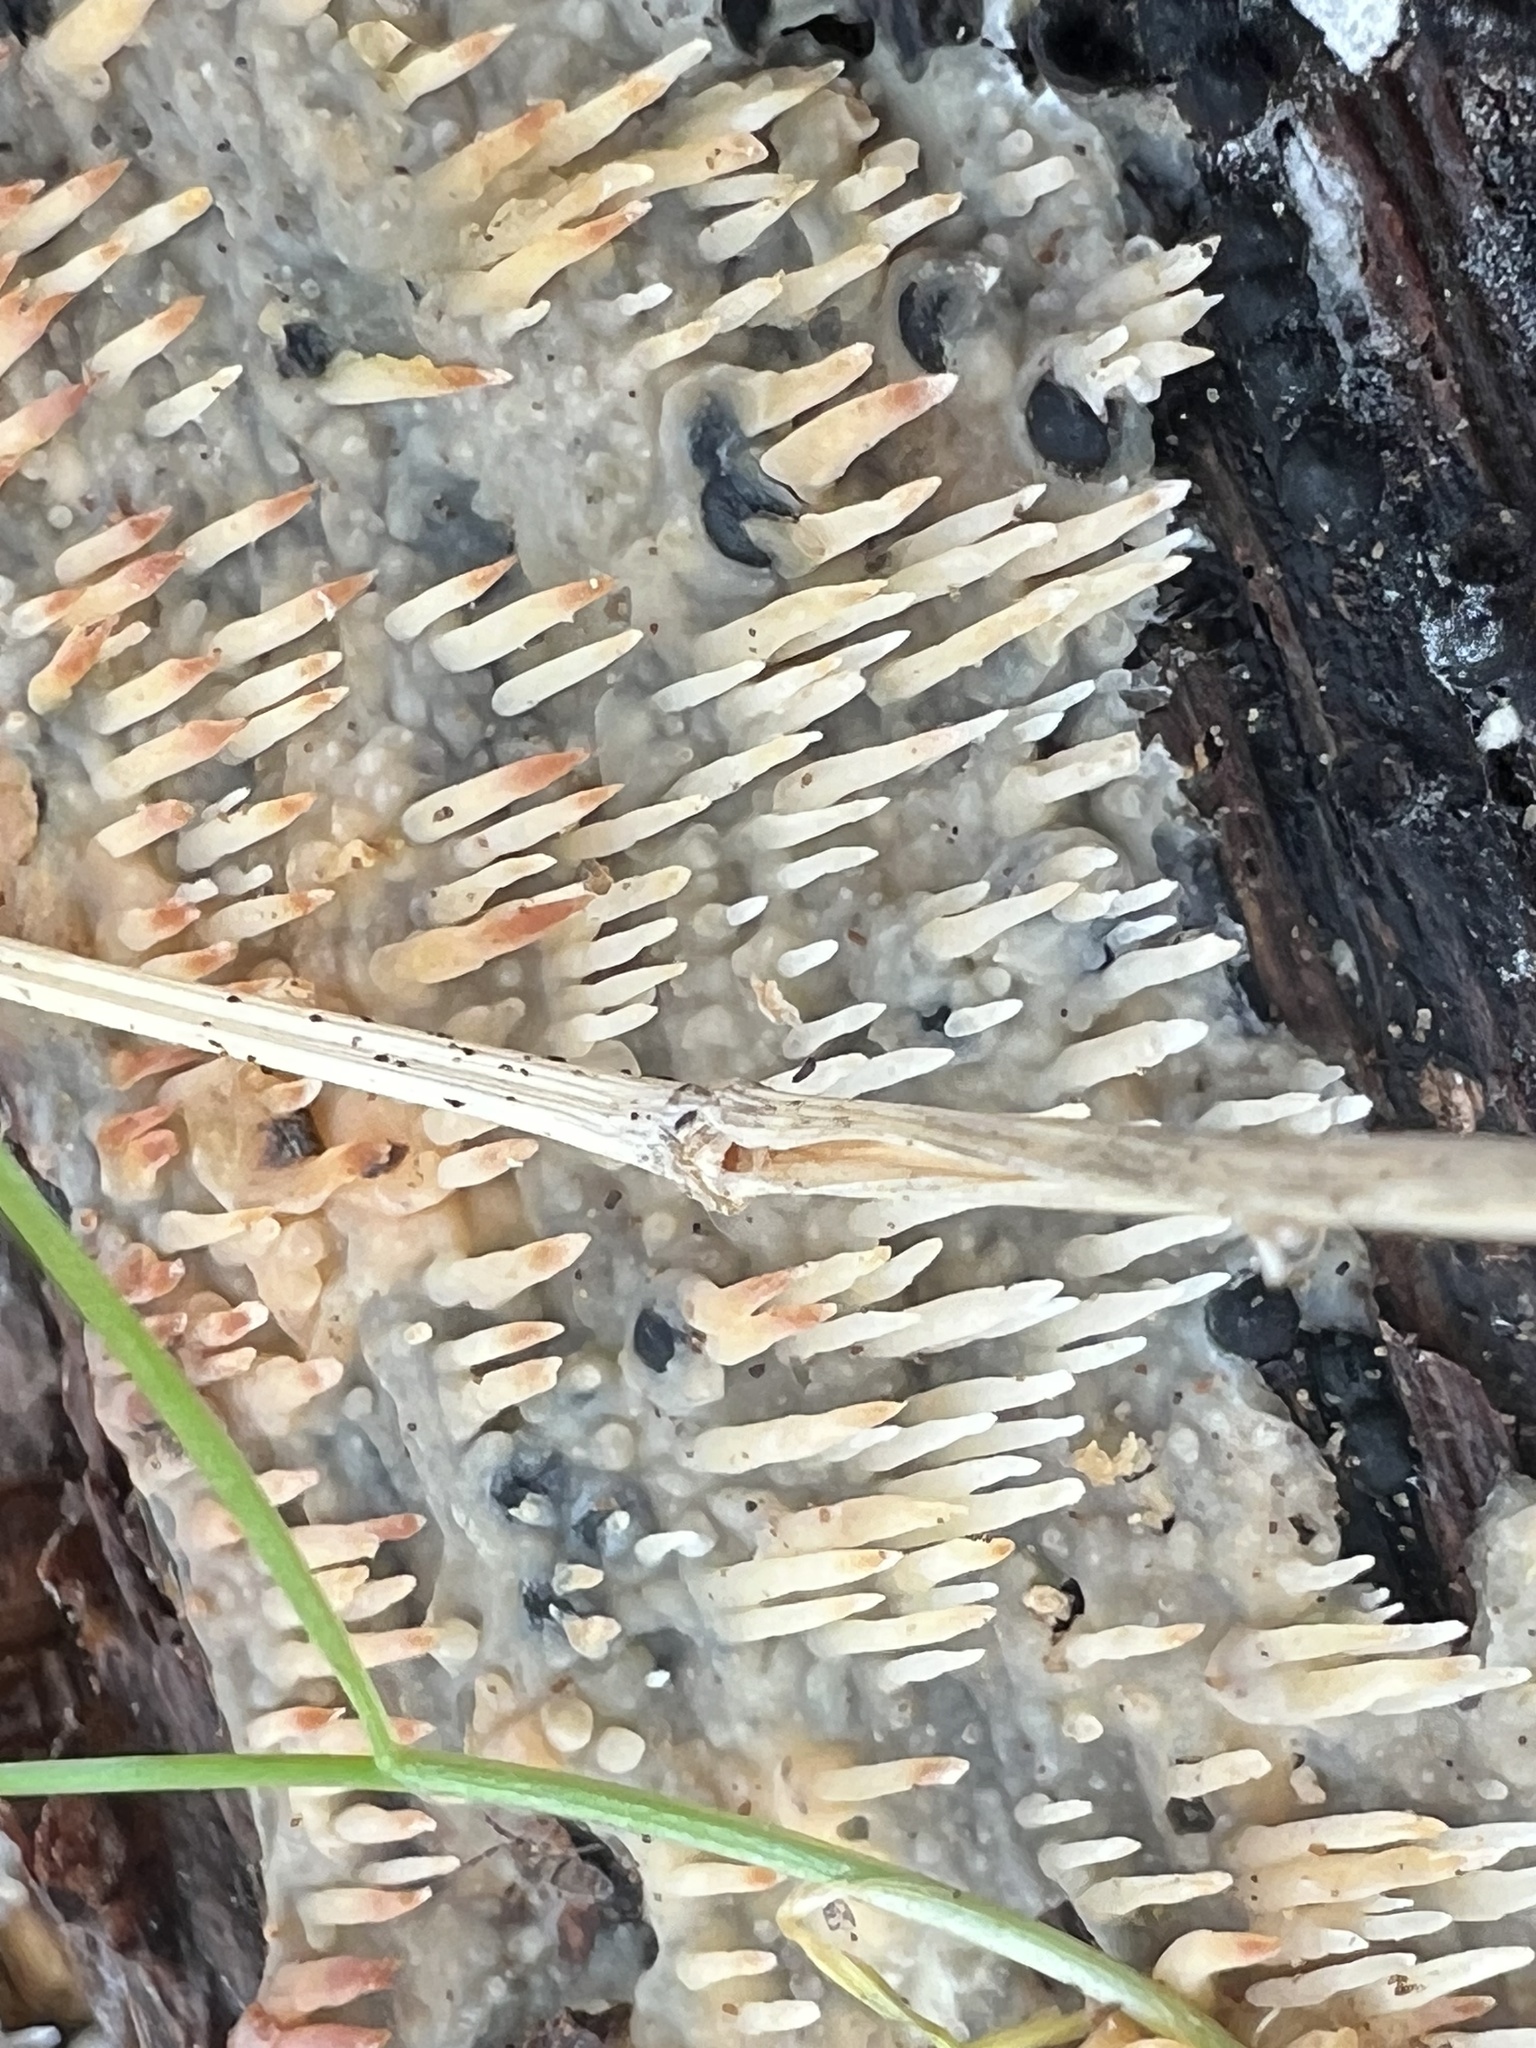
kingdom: Fungi
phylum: Basidiomycota
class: Agaricomycetes
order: Agaricales
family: Radulomycetaceae
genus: Radulomyces
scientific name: Radulomyces copelandii
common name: Asian beauty
